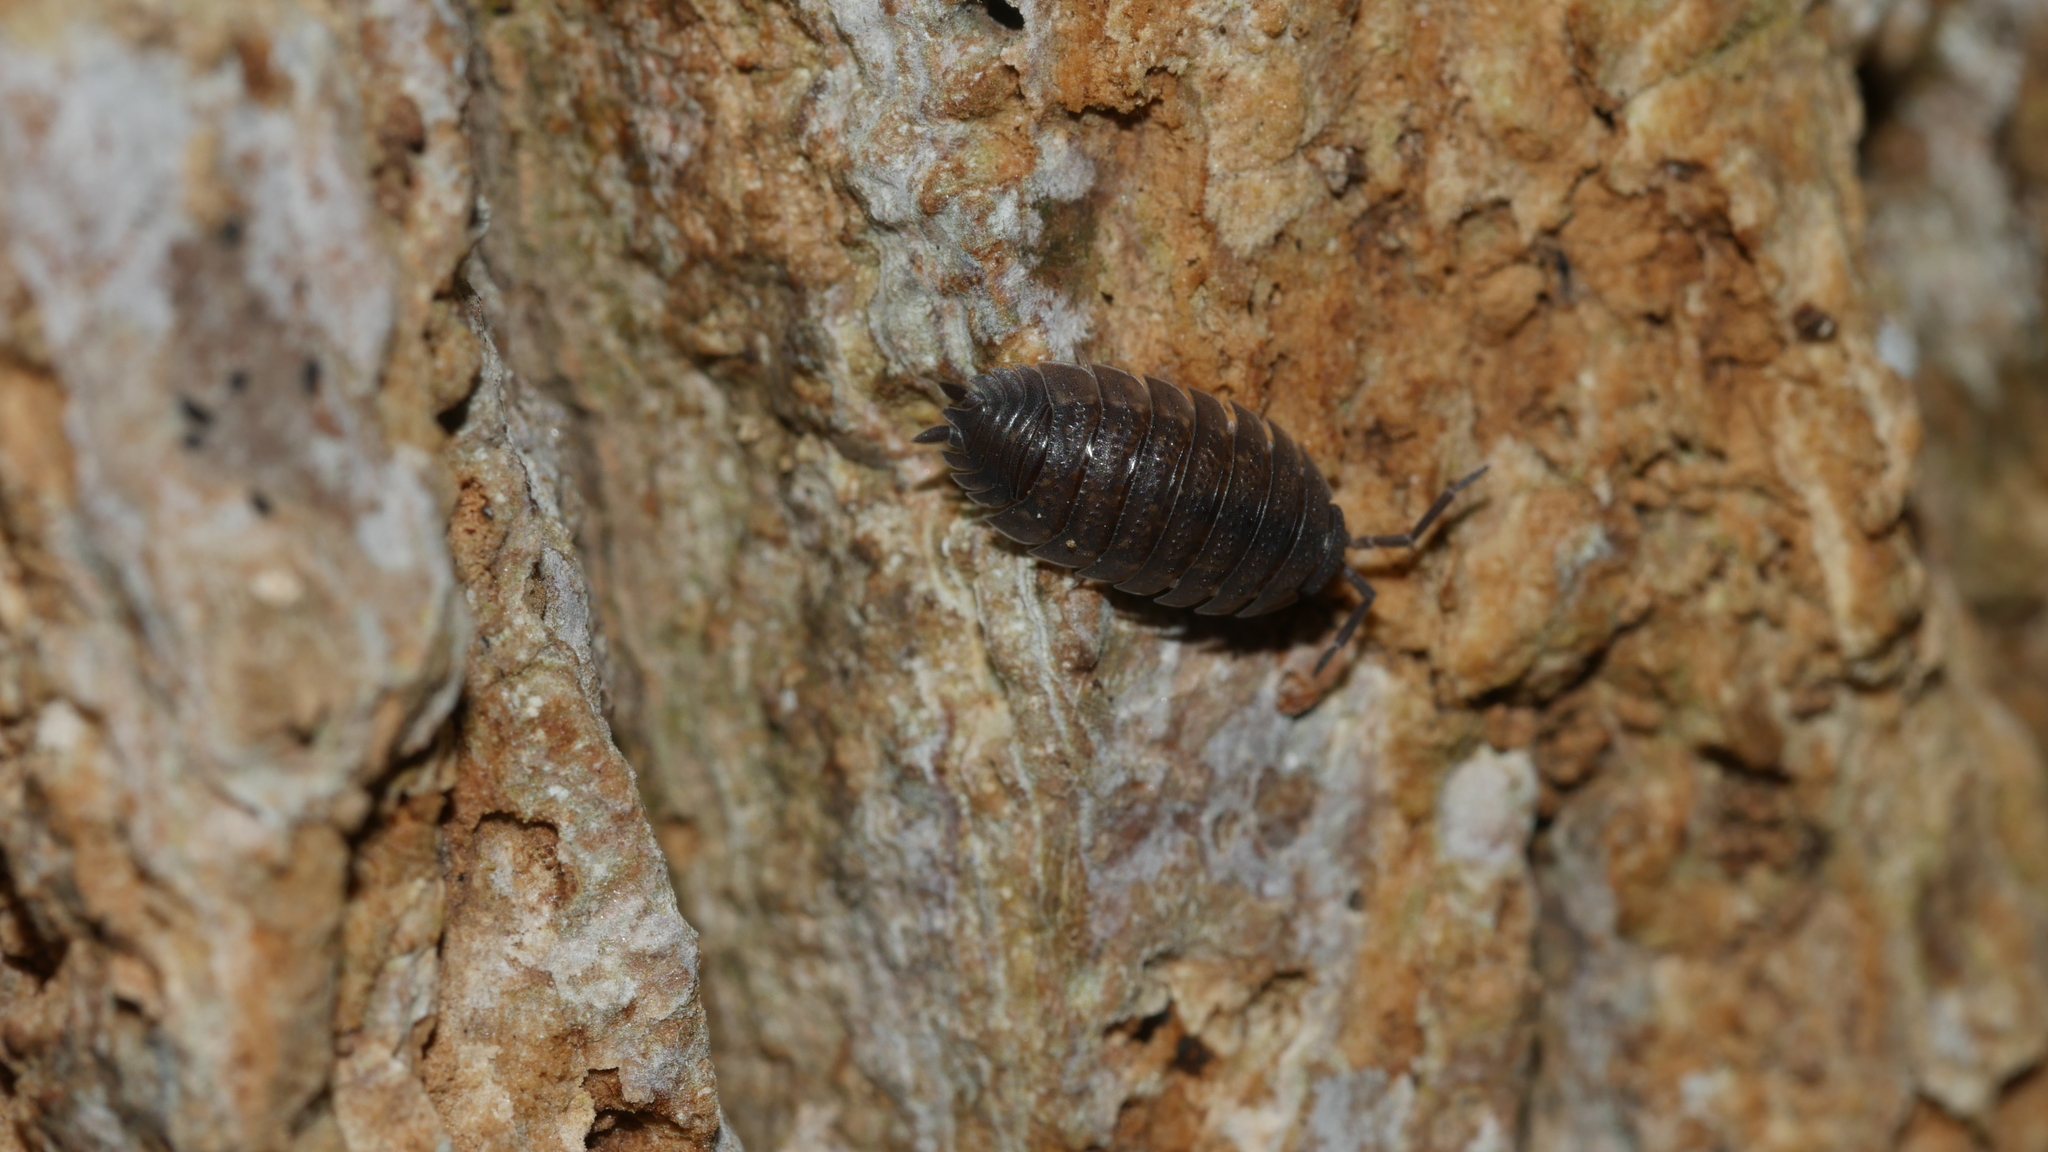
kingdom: Animalia
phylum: Arthropoda
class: Malacostraca
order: Isopoda
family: Porcellionidae
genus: Porcellio
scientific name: Porcellio scaber
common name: Common rough woodlouse
